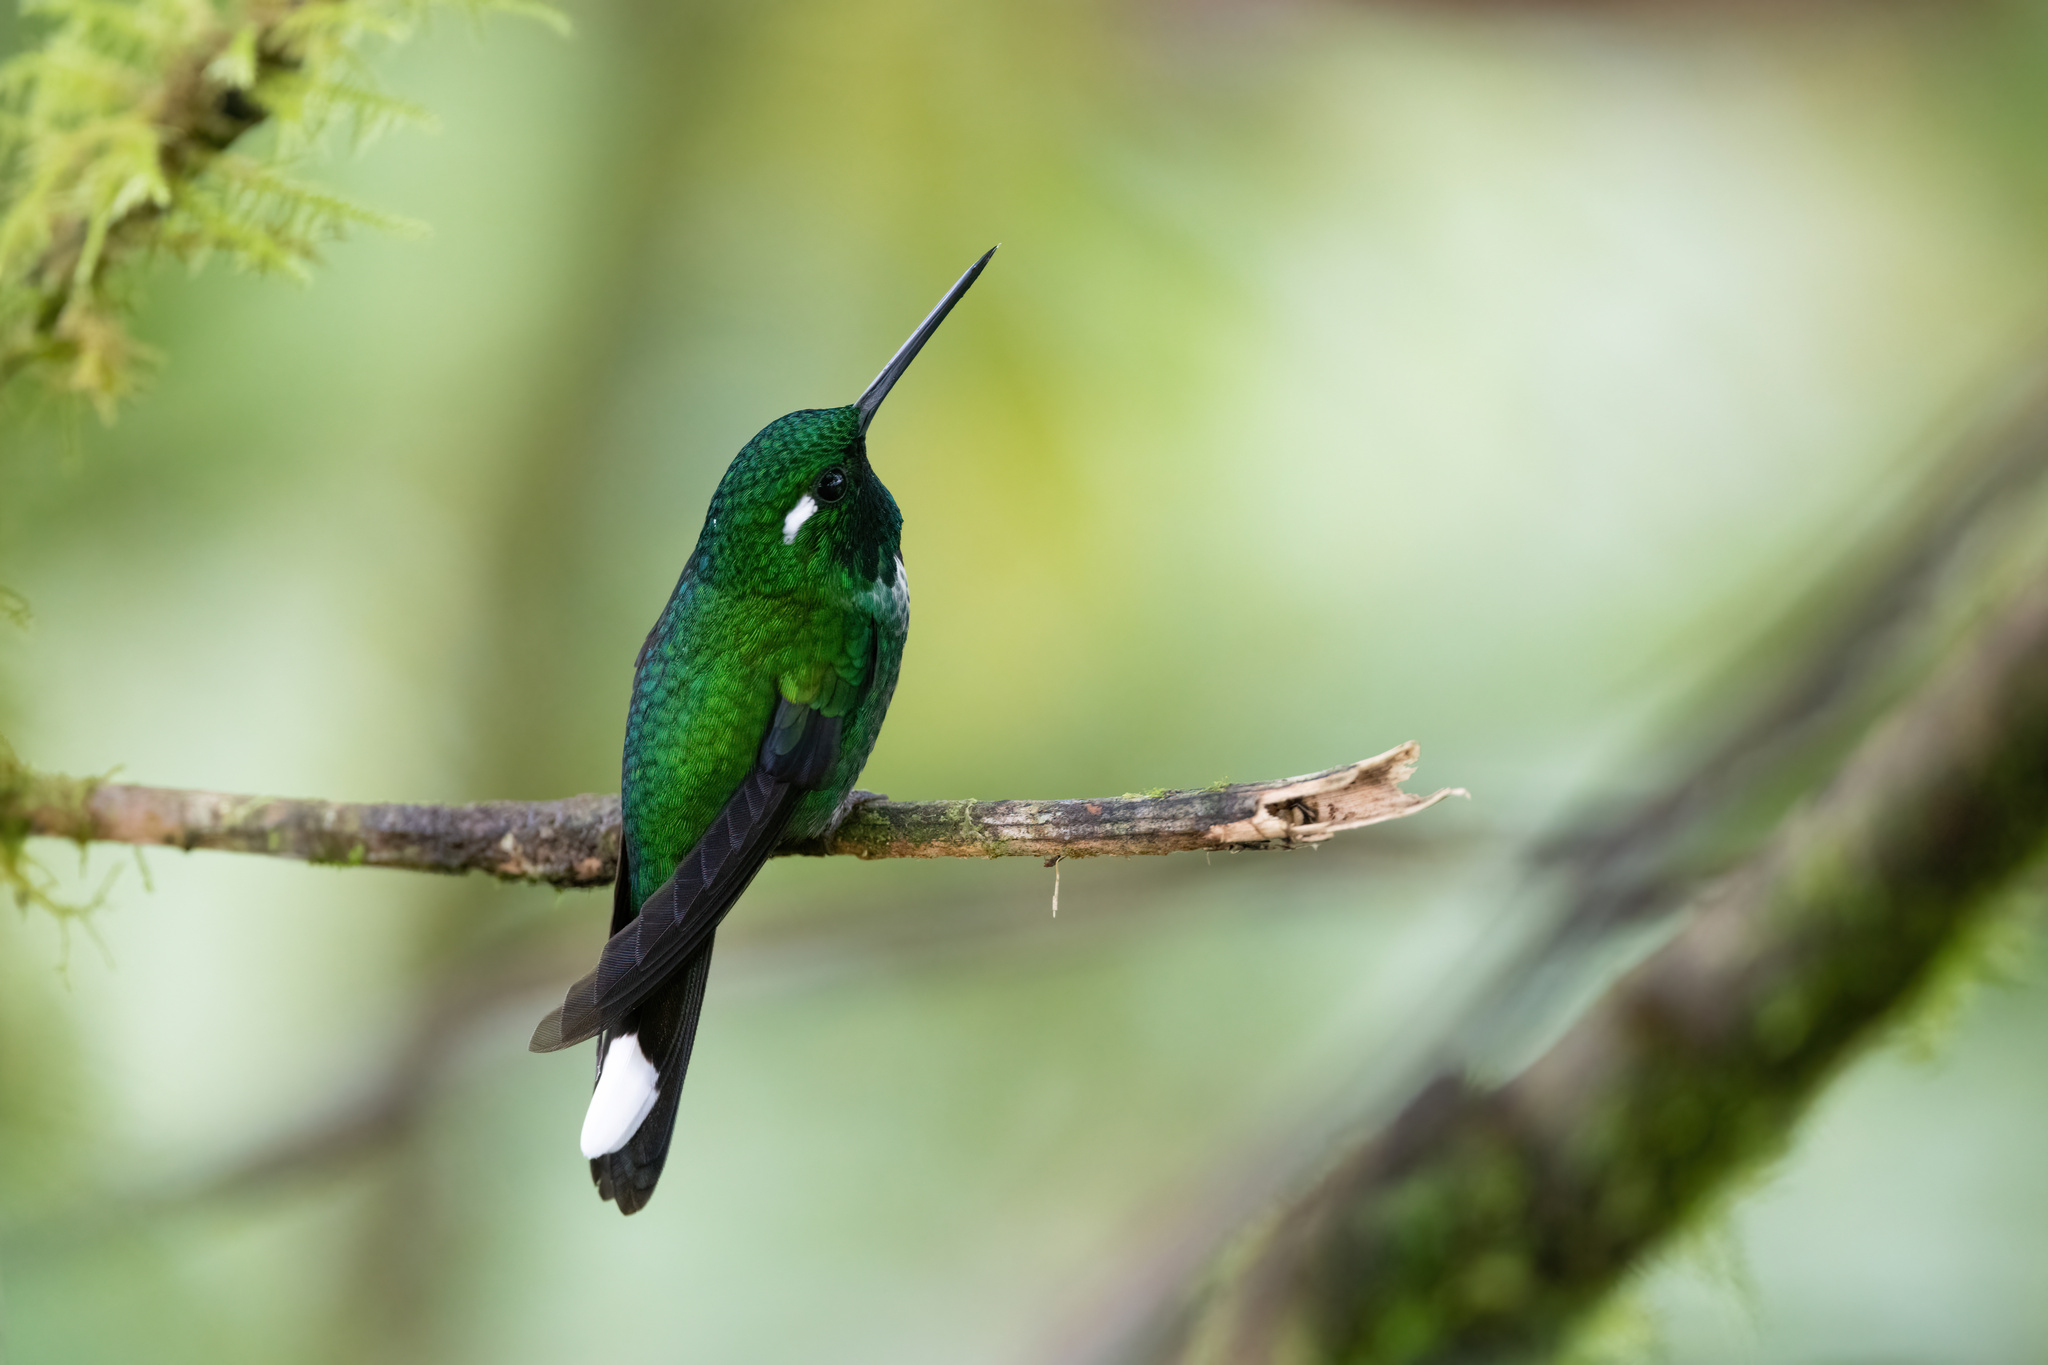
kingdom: Animalia
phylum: Chordata
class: Aves
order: Apodiformes
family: Trochilidae
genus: Urosticte
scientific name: Urosticte benjamini
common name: Purple-bibbed whitetip
